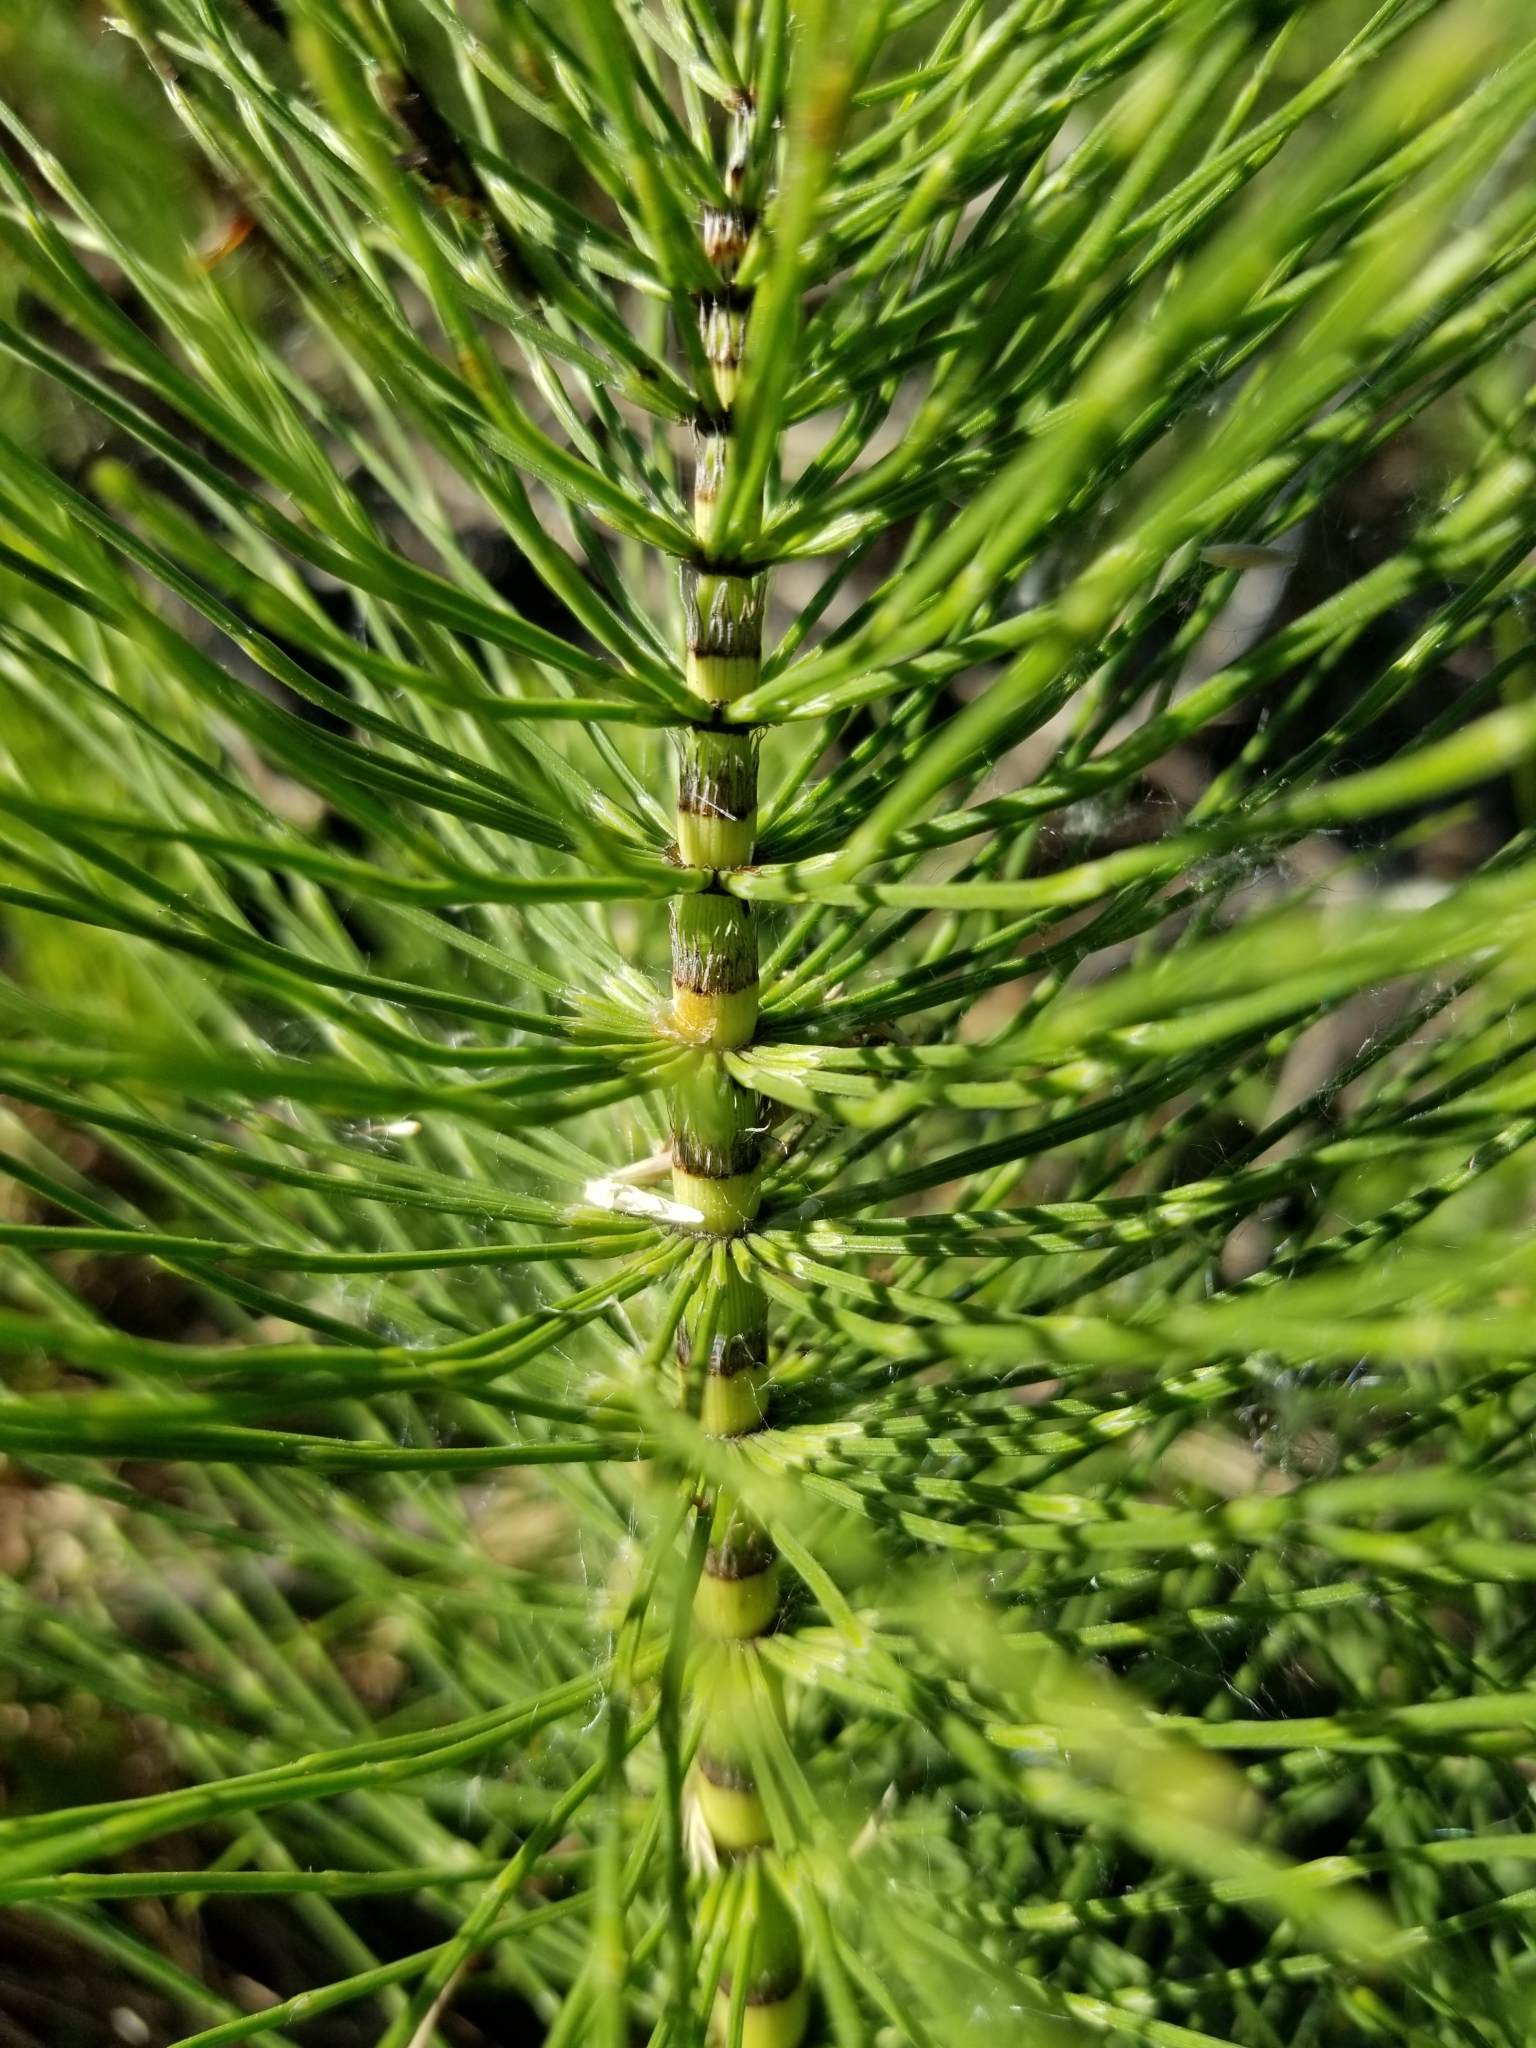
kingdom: Plantae
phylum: Tracheophyta
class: Polypodiopsida
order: Equisetales
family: Equisetaceae
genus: Equisetum
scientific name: Equisetum telmateia
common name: Great horsetail
